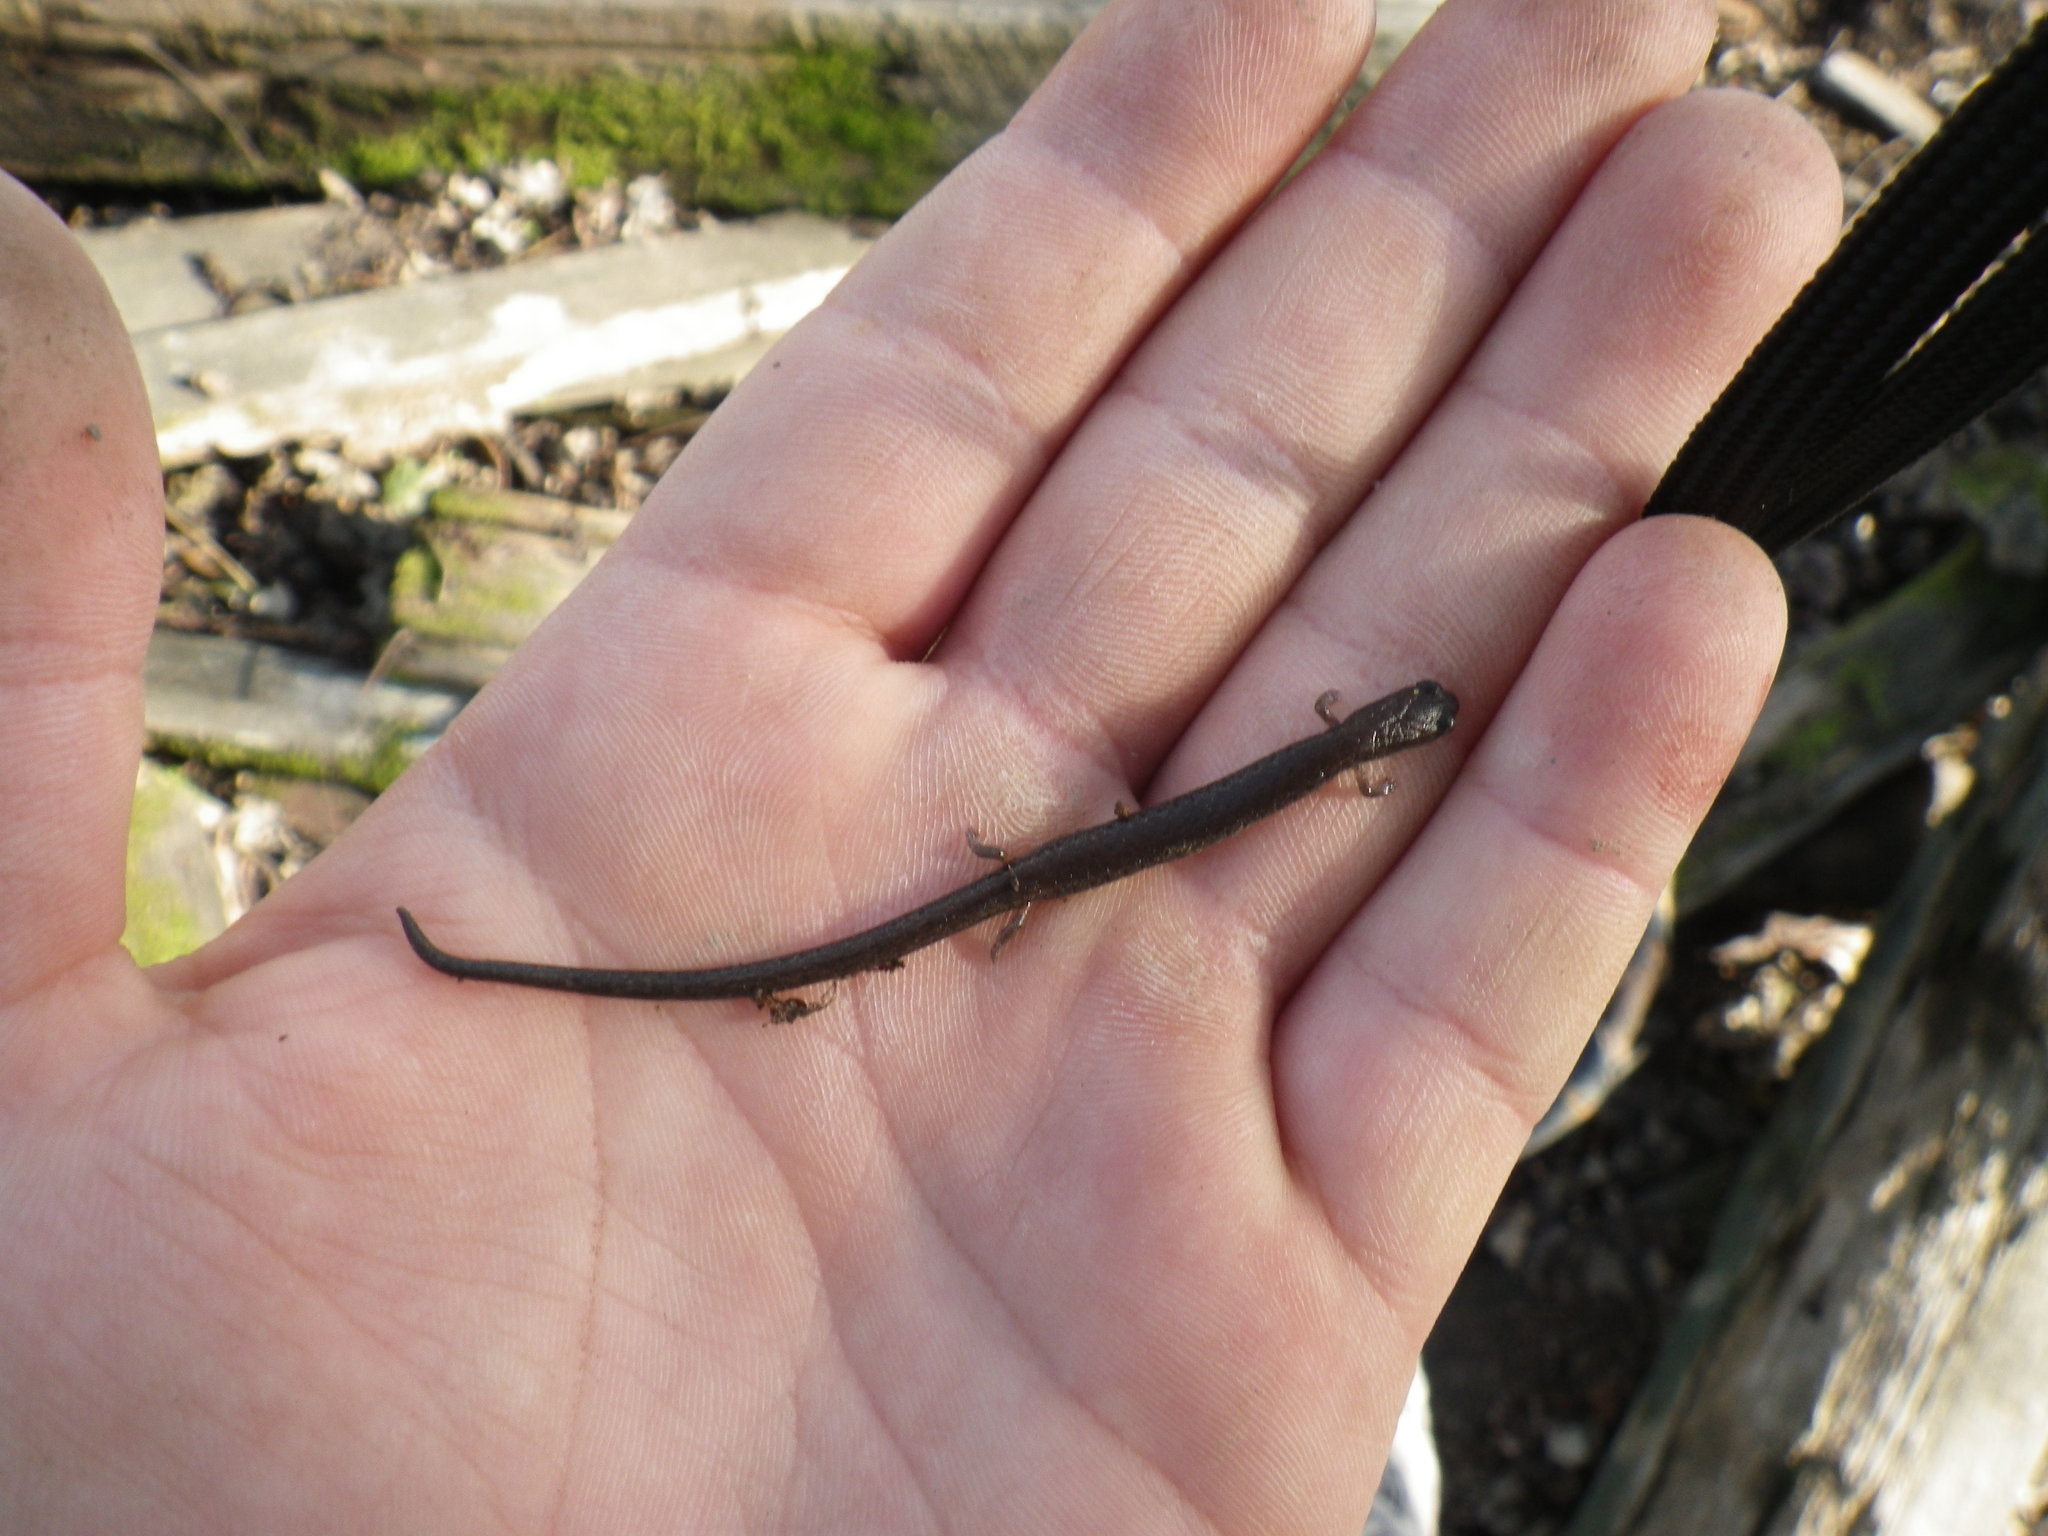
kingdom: Animalia
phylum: Chordata
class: Amphibia
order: Caudata
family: Plethodontidae
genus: Batrachoseps
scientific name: Batrachoseps attenuatus
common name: California slender salamander
